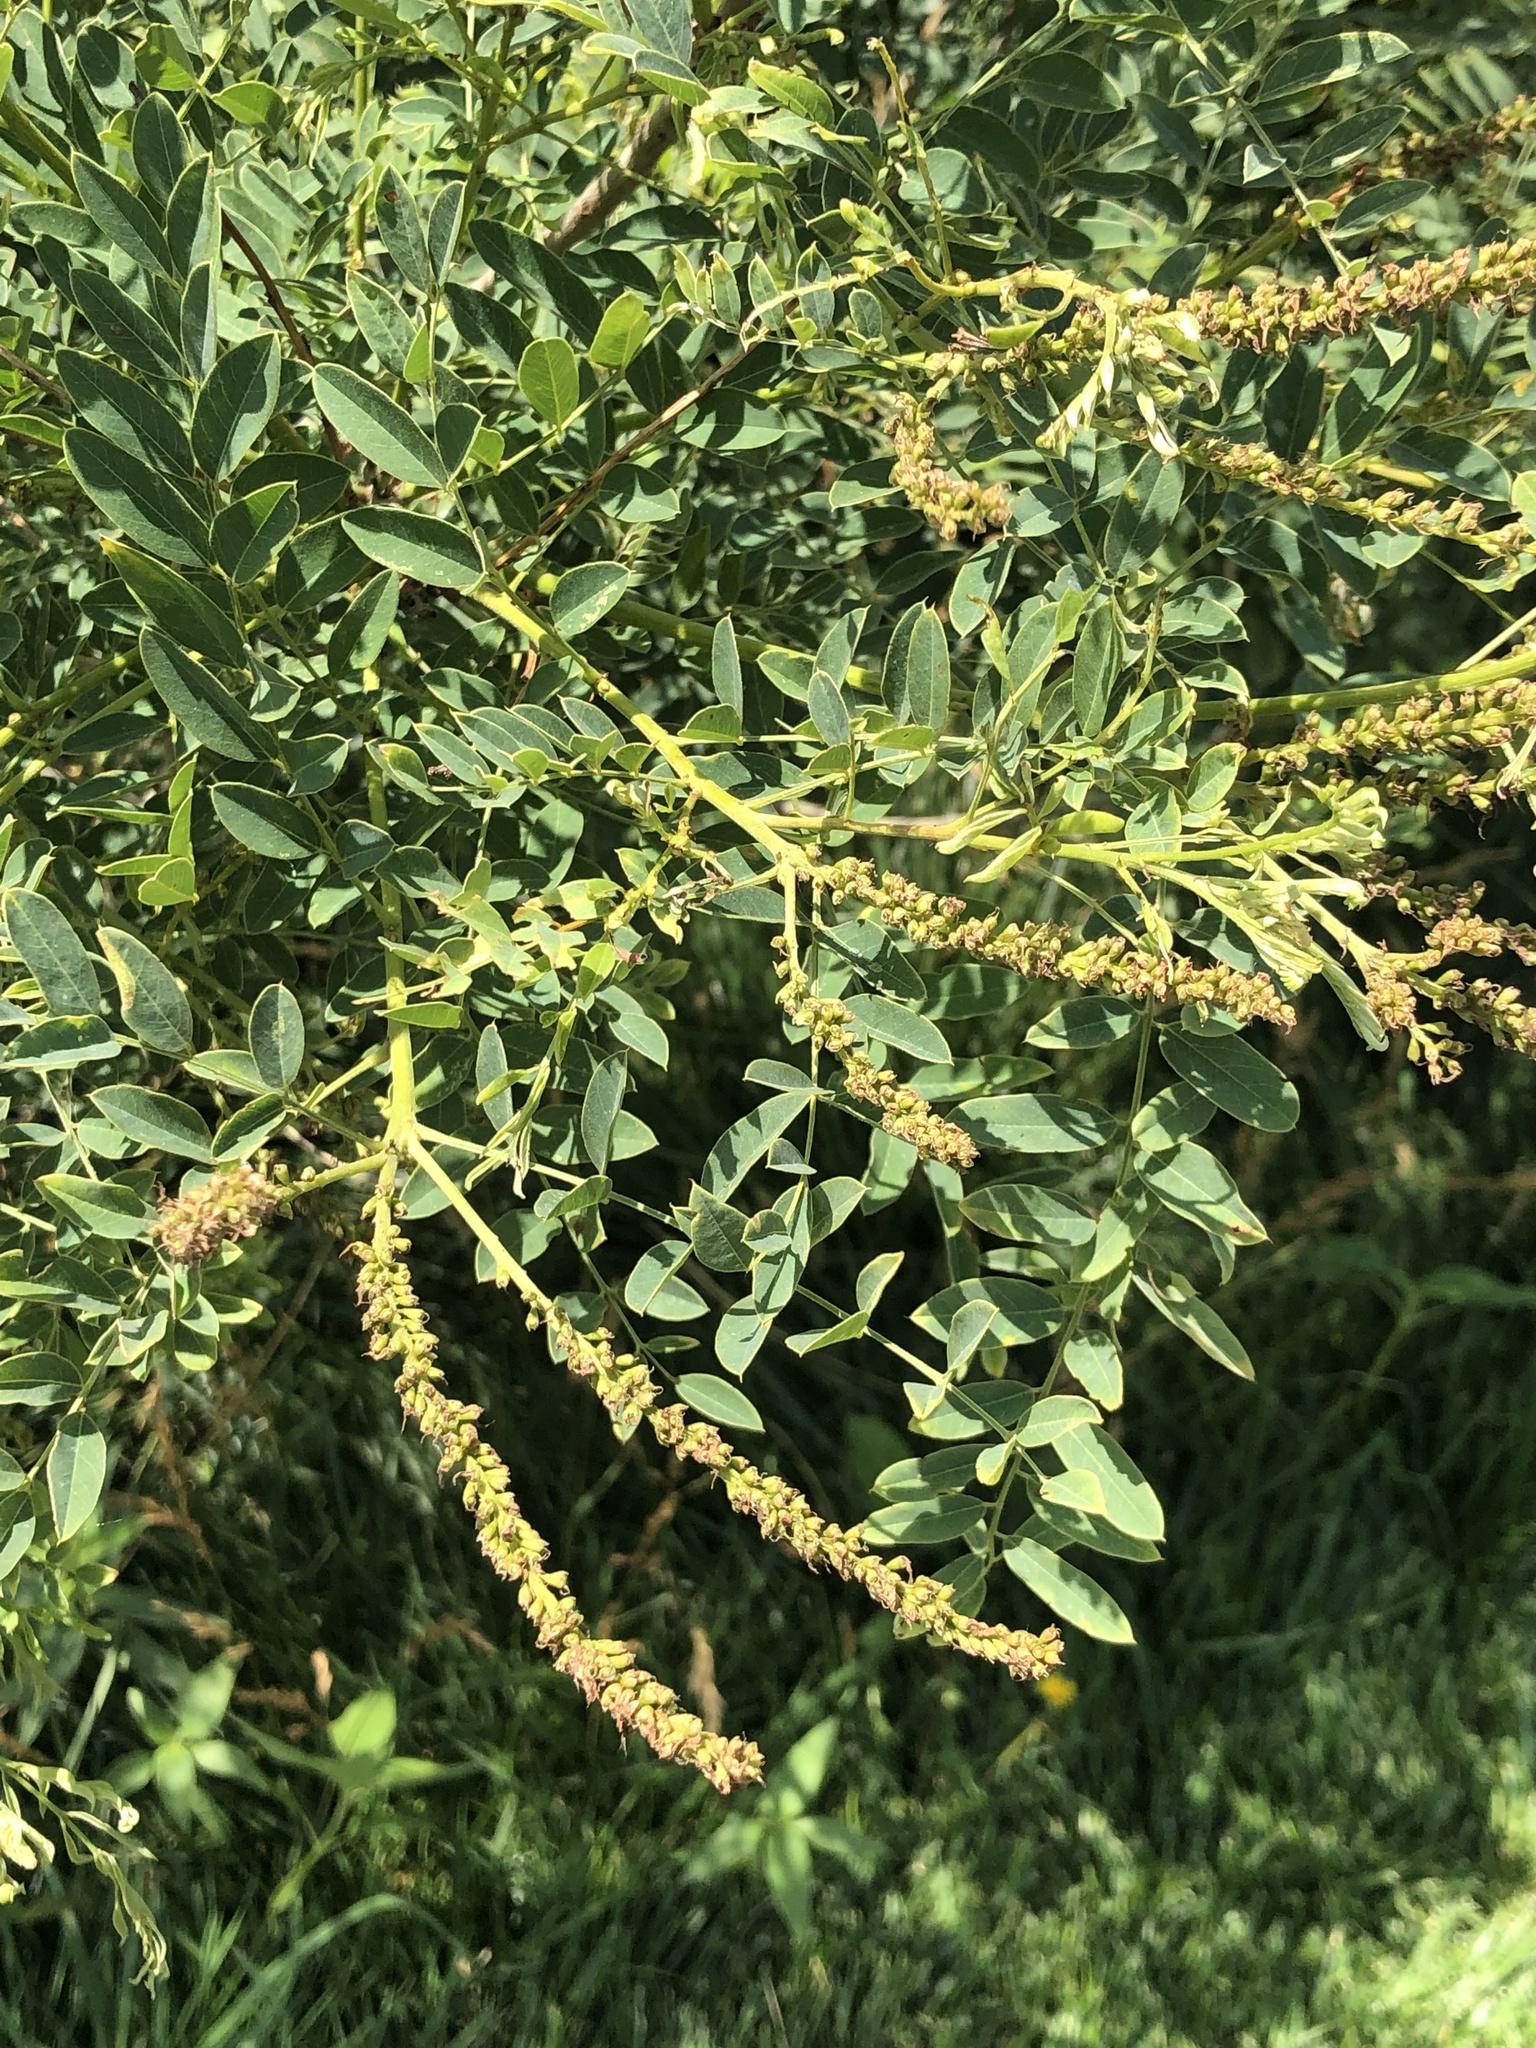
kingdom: Plantae
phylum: Tracheophyta
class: Magnoliopsida
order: Fabales
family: Fabaceae
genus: Amorpha
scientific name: Amorpha fruticosa
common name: False indigo
